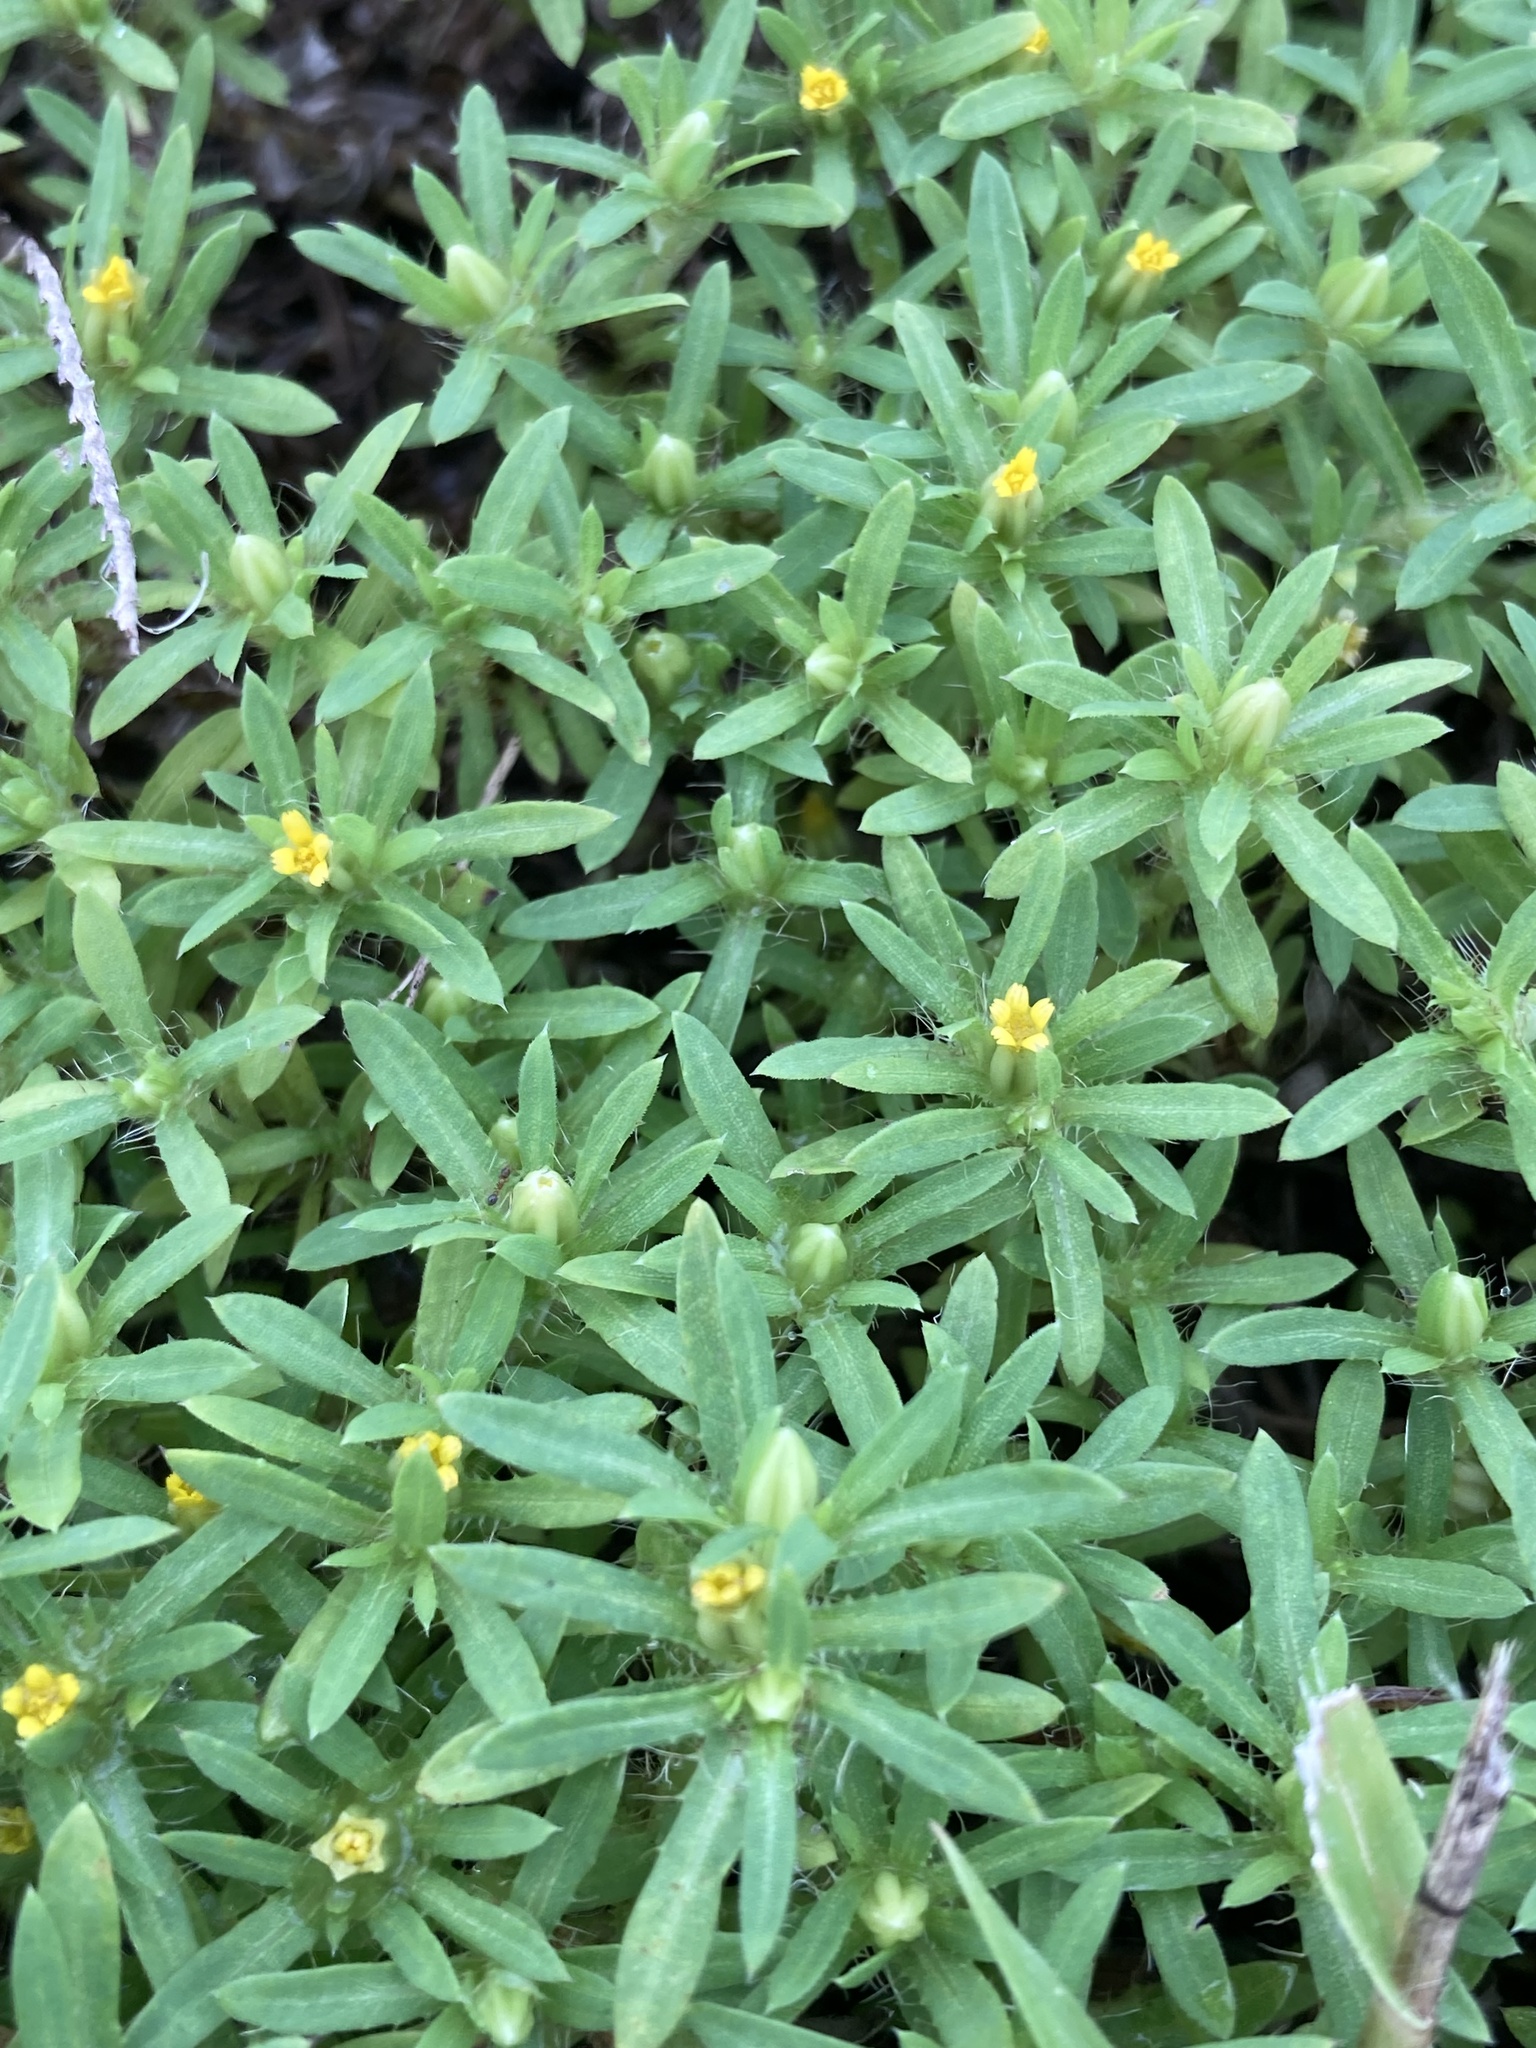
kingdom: Plantae
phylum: Tracheophyta
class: Magnoliopsida
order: Asterales
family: Asteraceae
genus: Pectis
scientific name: Pectis prostrata
